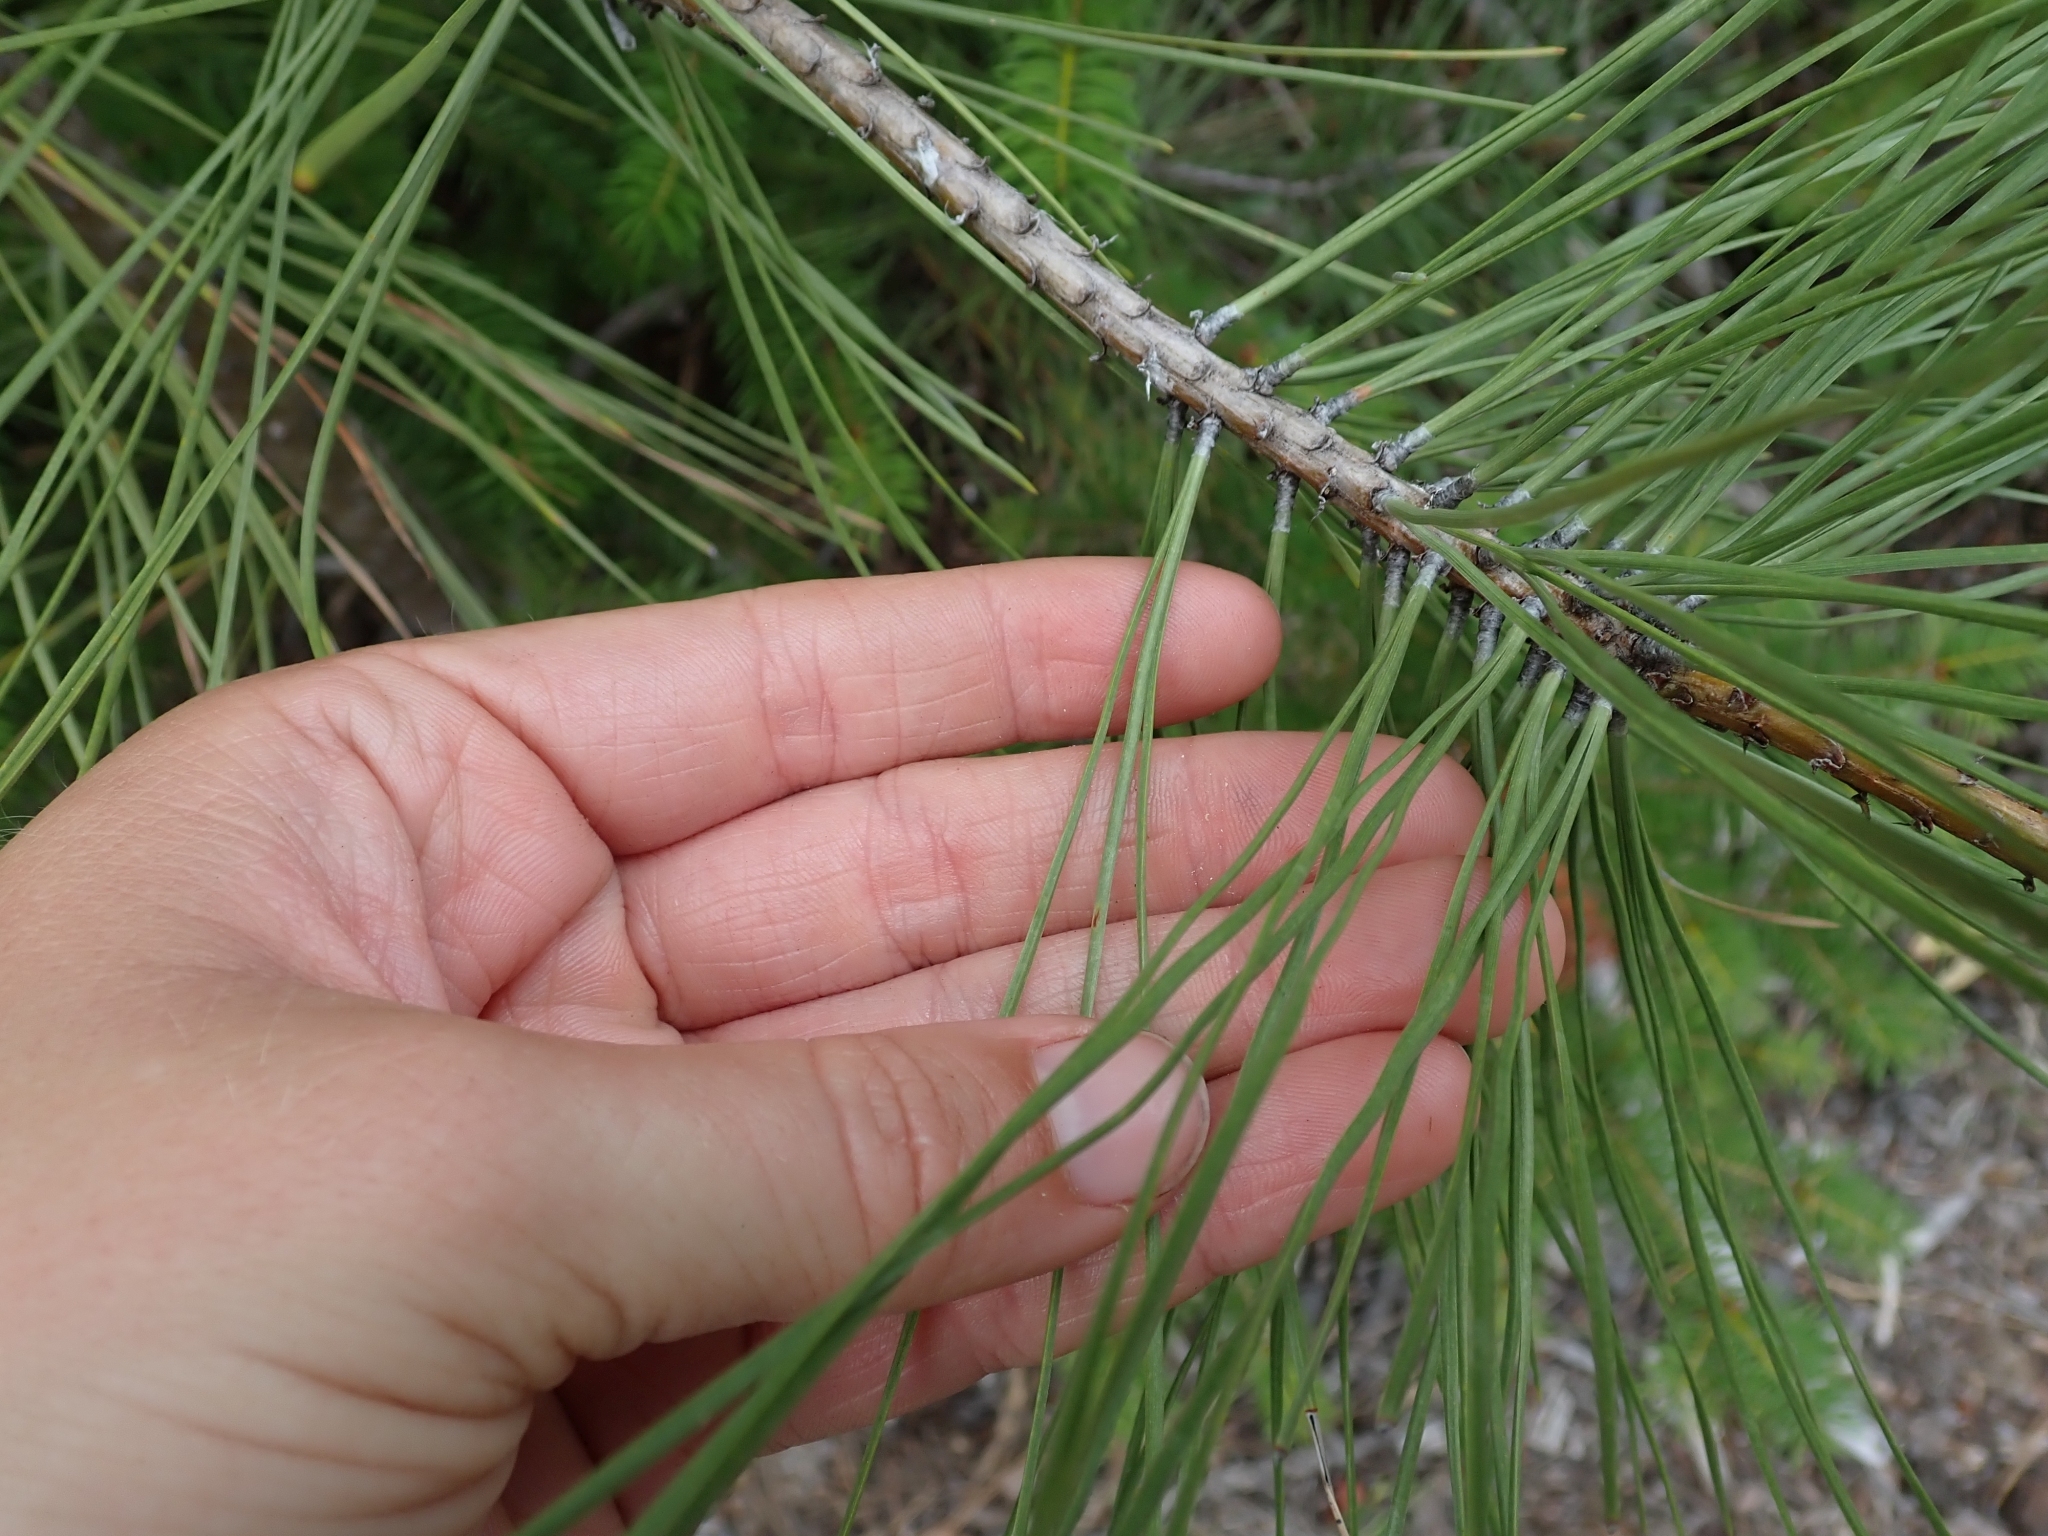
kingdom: Plantae
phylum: Tracheophyta
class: Pinopsida
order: Pinales
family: Pinaceae
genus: Pinus
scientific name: Pinus ponderosa
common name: Western yellow-pine
